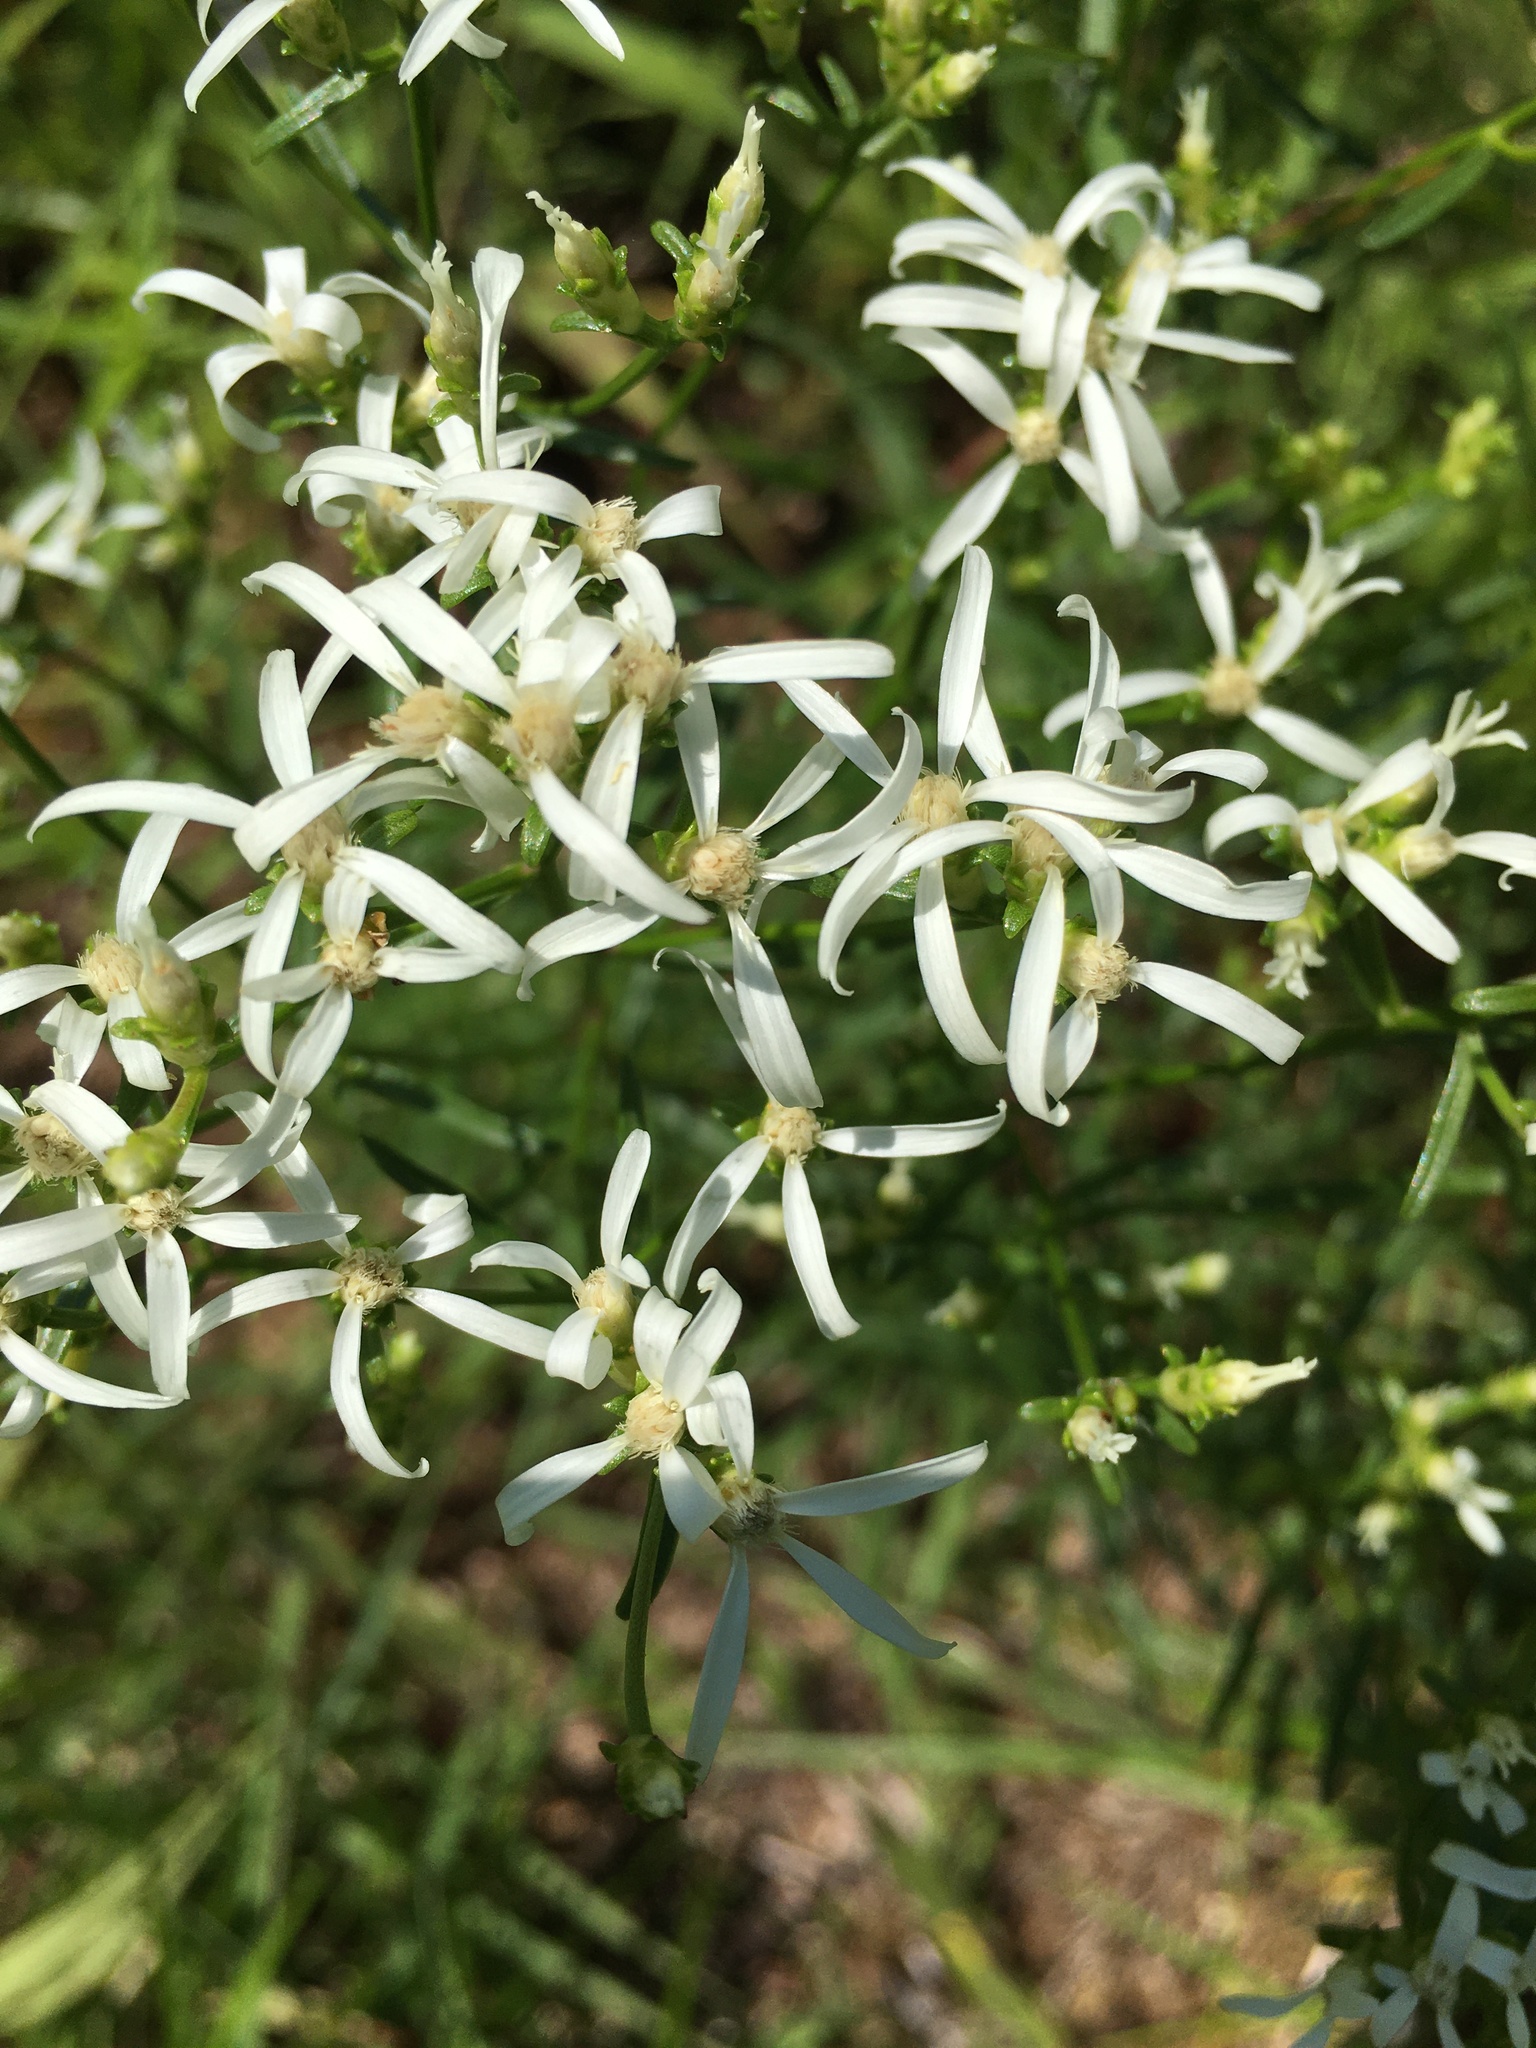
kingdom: Plantae
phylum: Tracheophyta
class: Magnoliopsida
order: Asterales
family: Asteraceae
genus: Sericocarpus
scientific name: Sericocarpus linifolius
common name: Narrow-leaf aster
